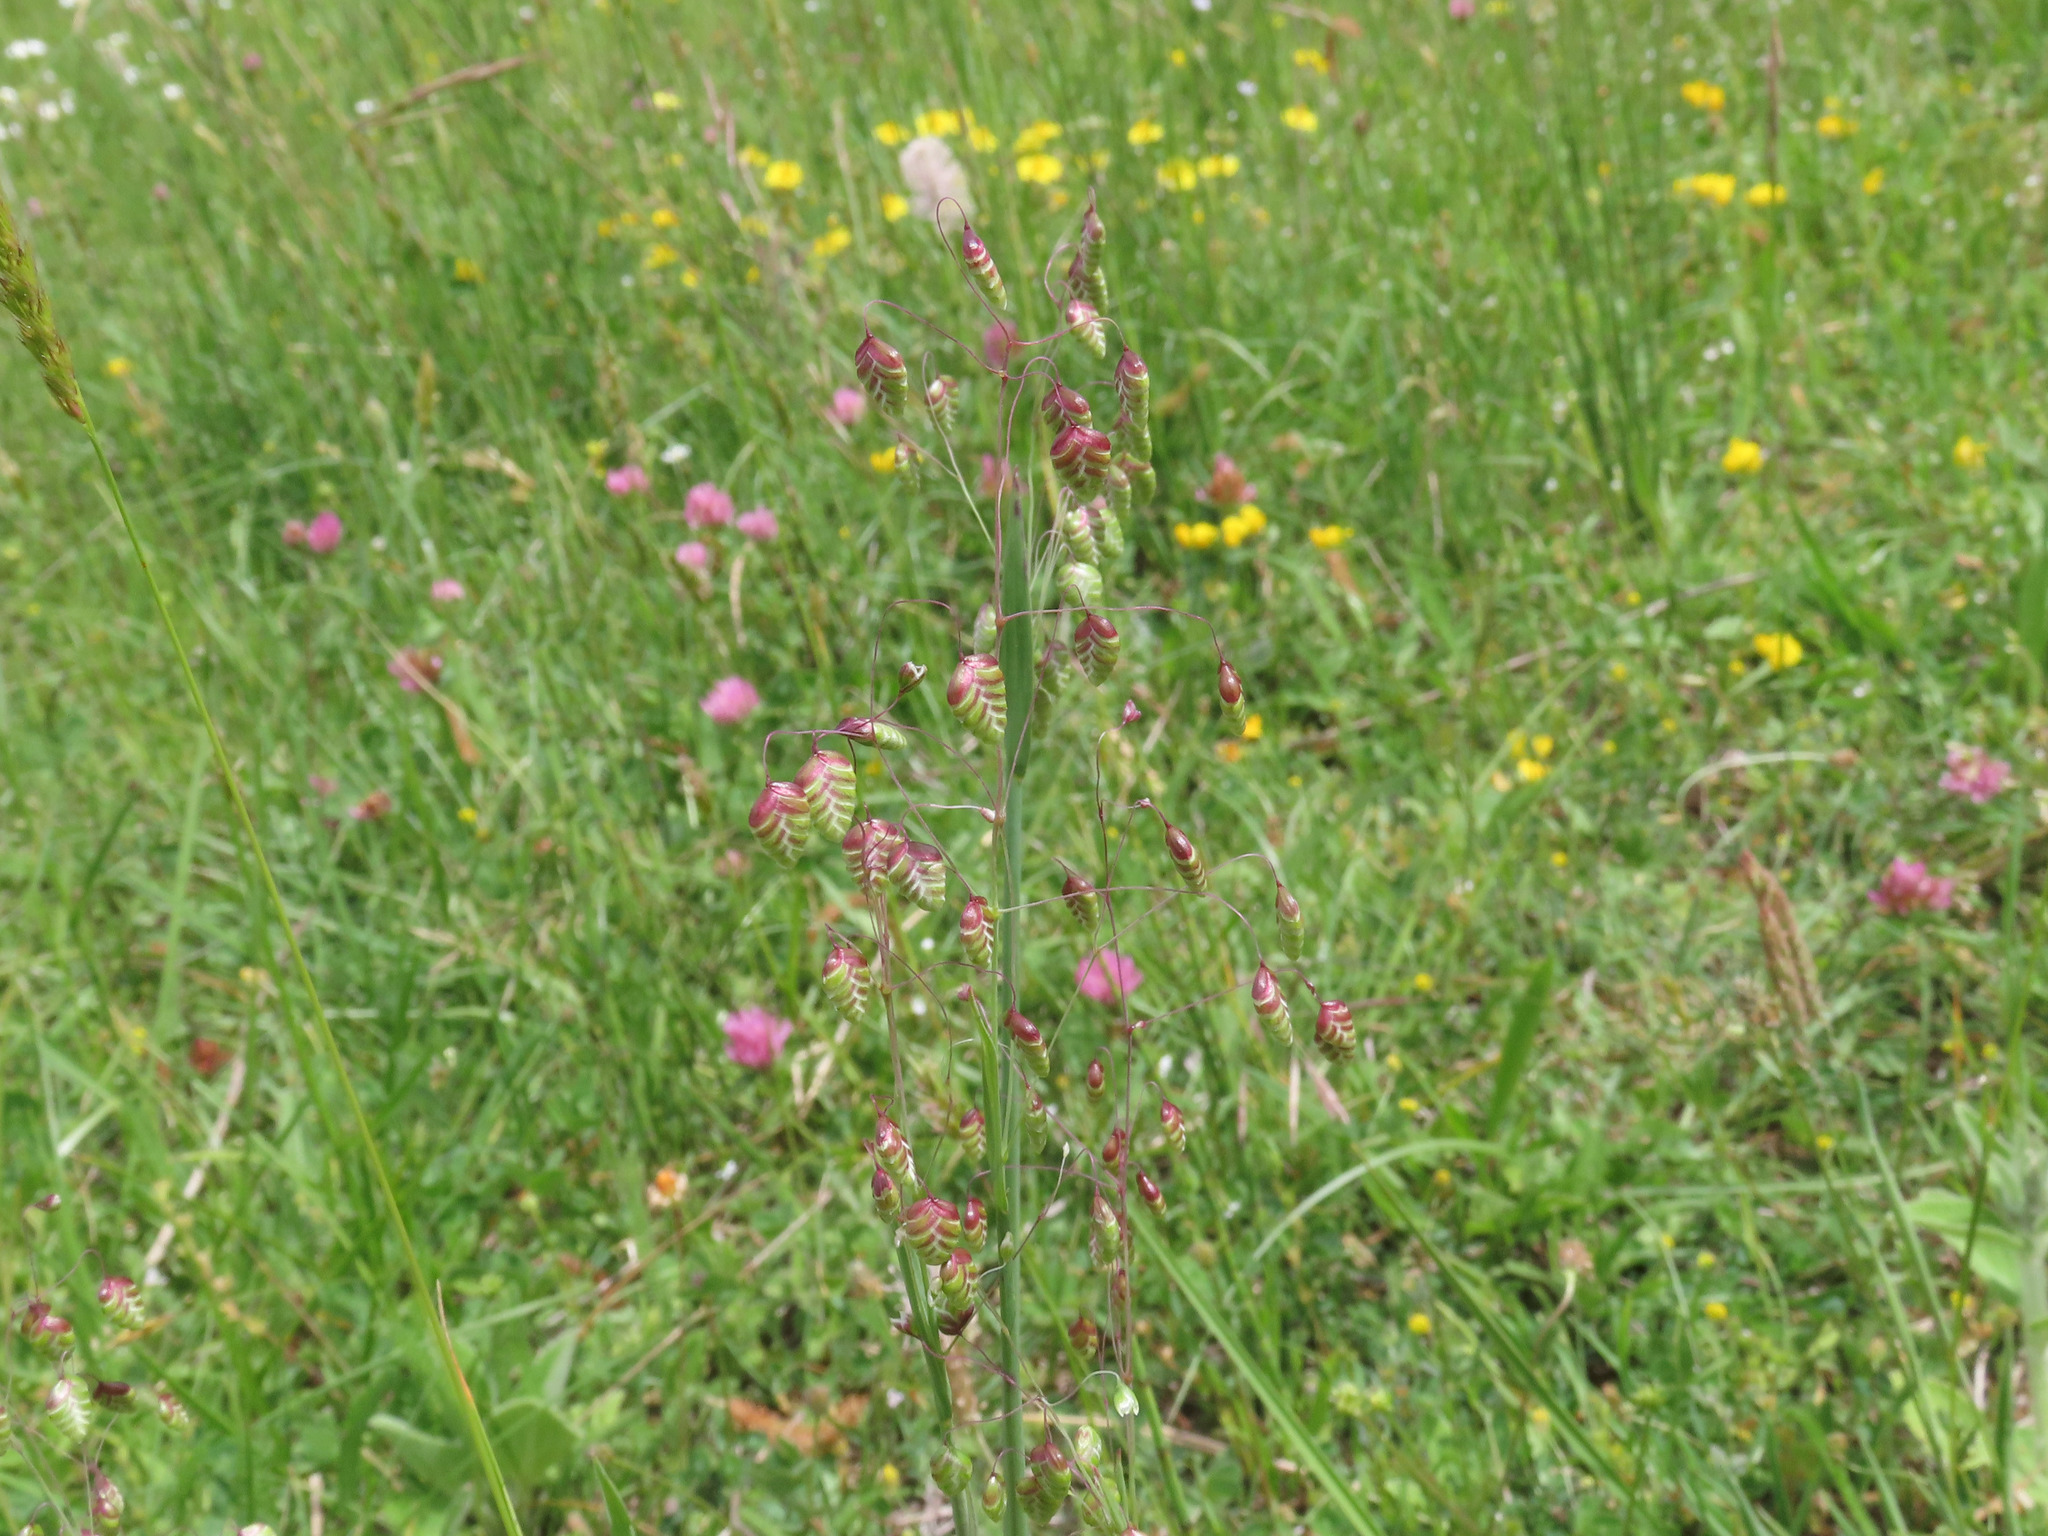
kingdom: Plantae
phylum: Tracheophyta
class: Liliopsida
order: Poales
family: Poaceae
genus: Briza
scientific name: Briza media
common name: Quaking grass
